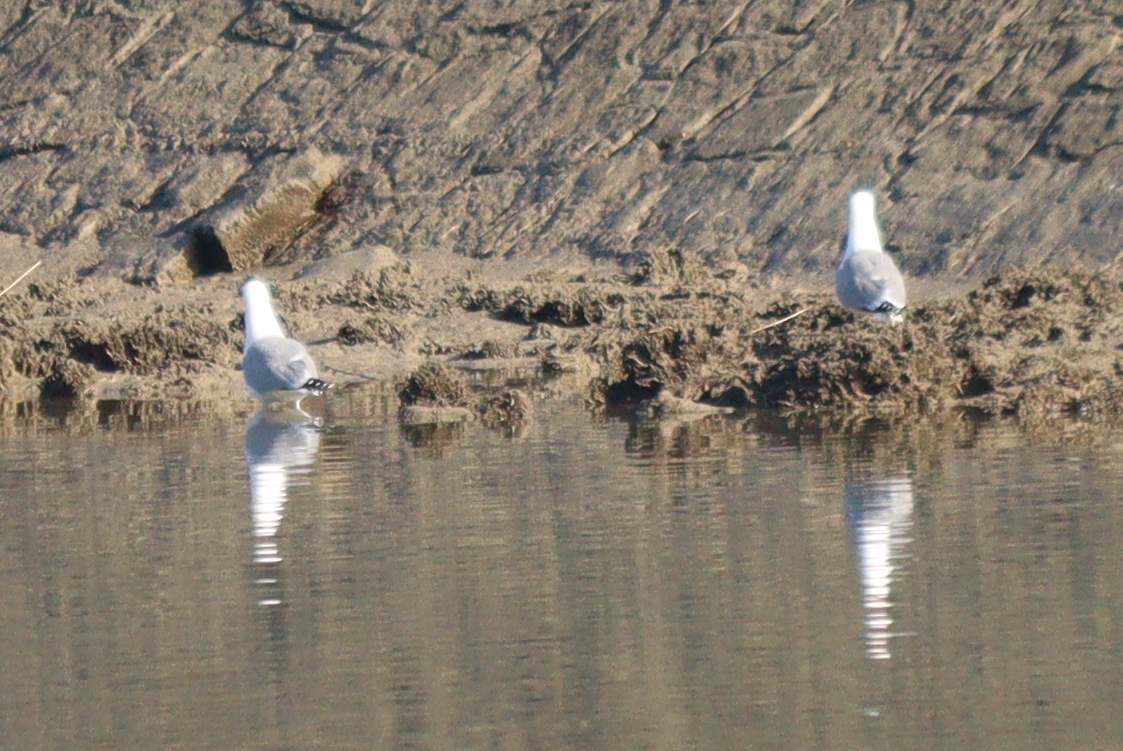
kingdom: Animalia
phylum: Chordata
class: Aves
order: Charadriiformes
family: Laridae
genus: Larus
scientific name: Larus argentatus
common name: Herring gull
